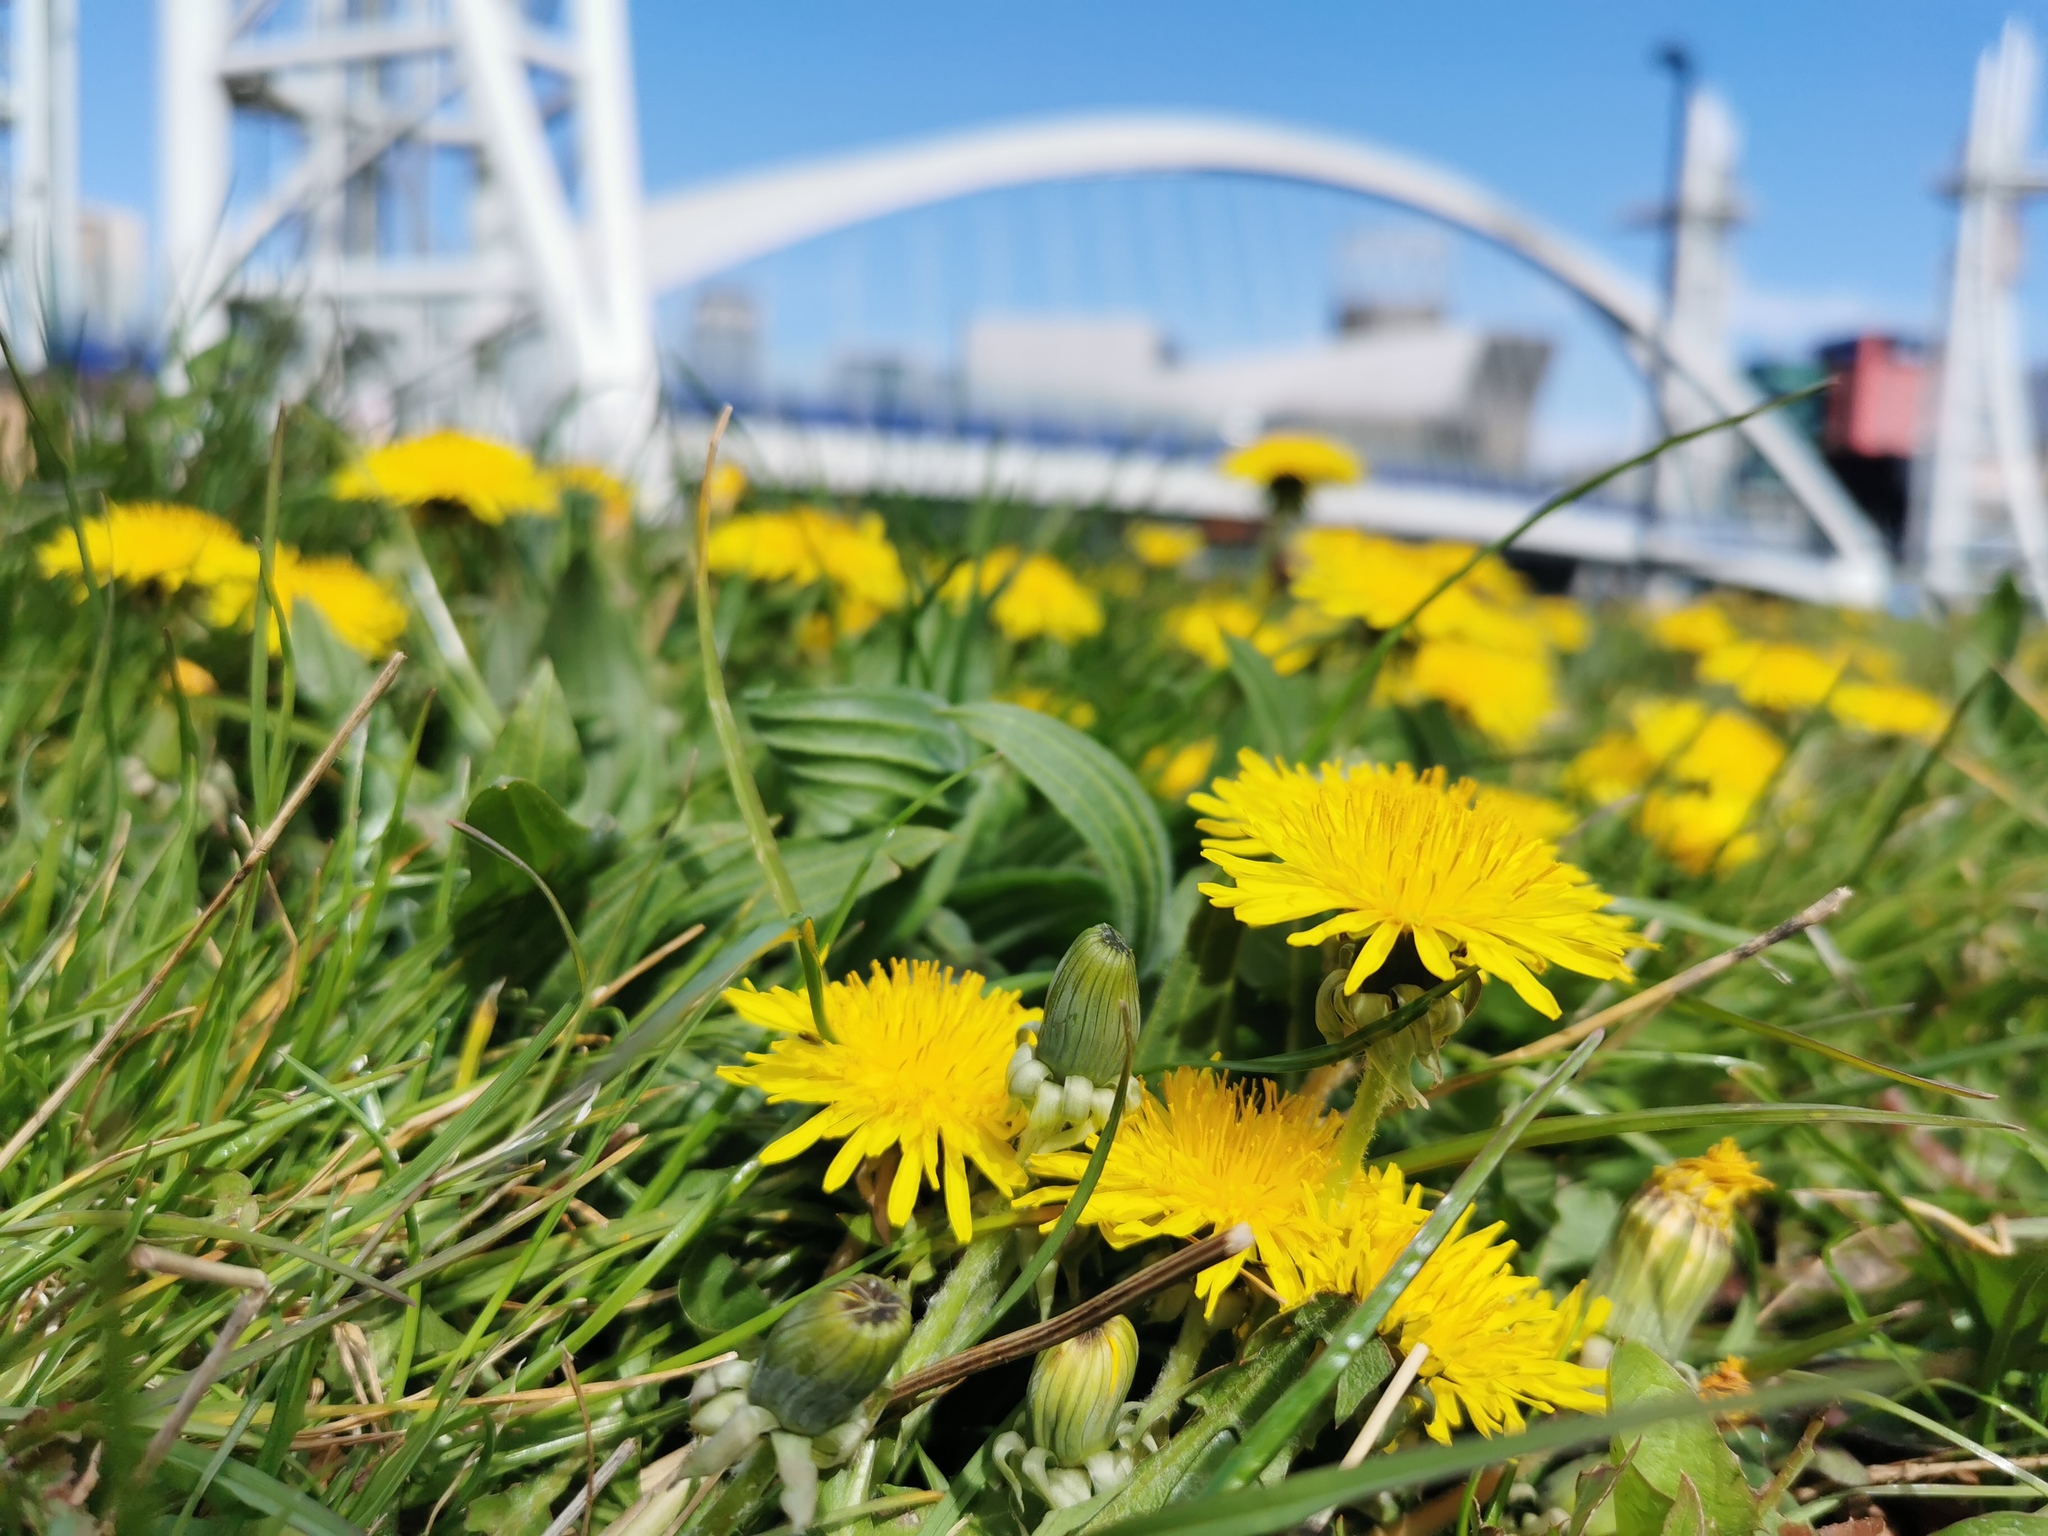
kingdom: Plantae
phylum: Tracheophyta
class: Magnoliopsida
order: Asterales
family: Asteraceae
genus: Taraxacum
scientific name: Taraxacum officinale
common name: Common dandelion
